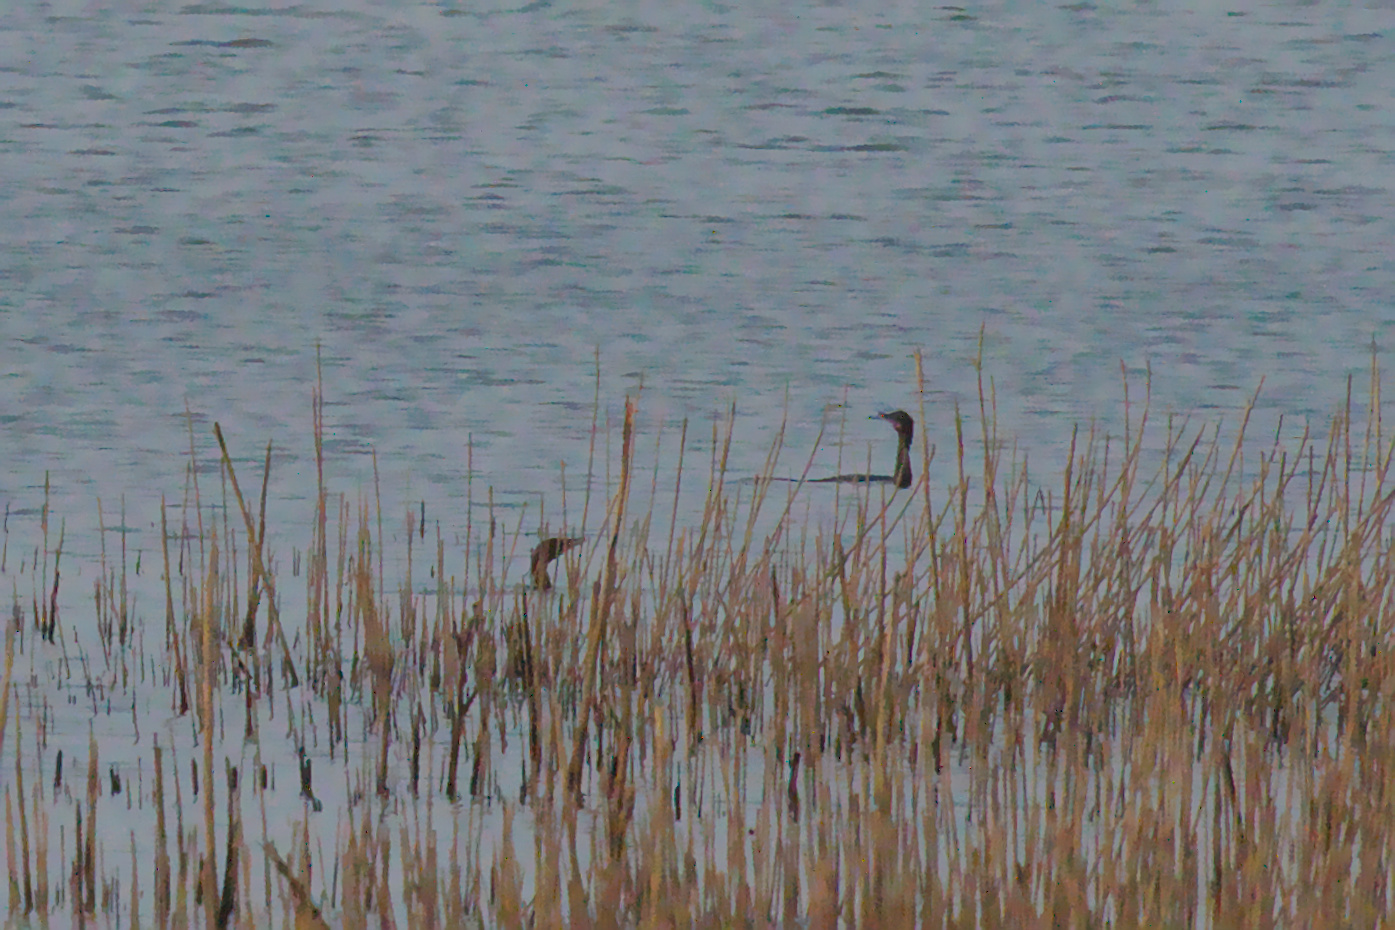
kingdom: Animalia
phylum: Chordata
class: Aves
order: Suliformes
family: Phalacrocoracidae
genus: Microcarbo
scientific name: Microcarbo niger
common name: Little cormorant
